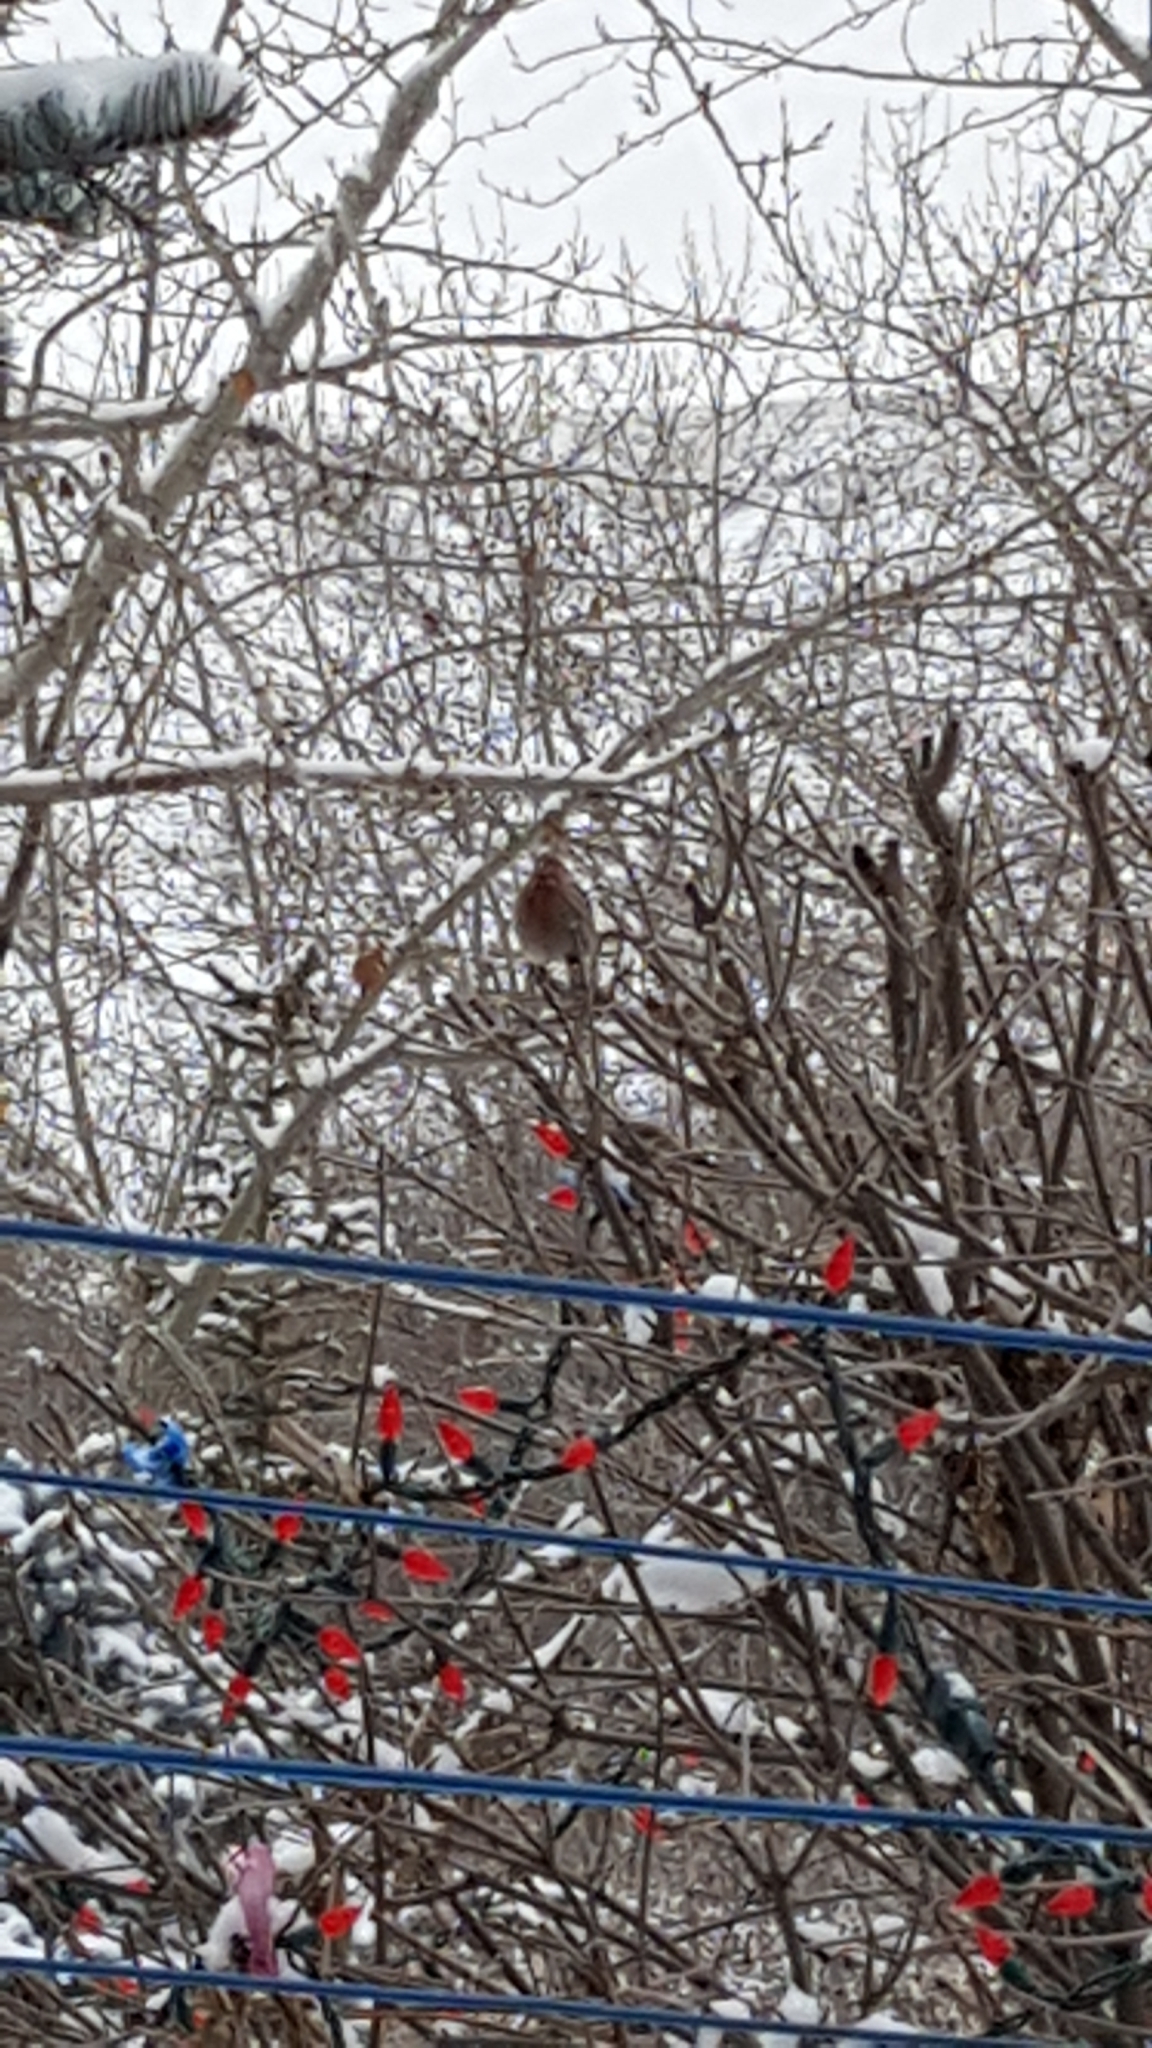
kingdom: Animalia
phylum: Chordata
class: Aves
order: Passeriformes
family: Fringillidae
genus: Haemorhous
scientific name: Haemorhous mexicanus
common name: House finch
